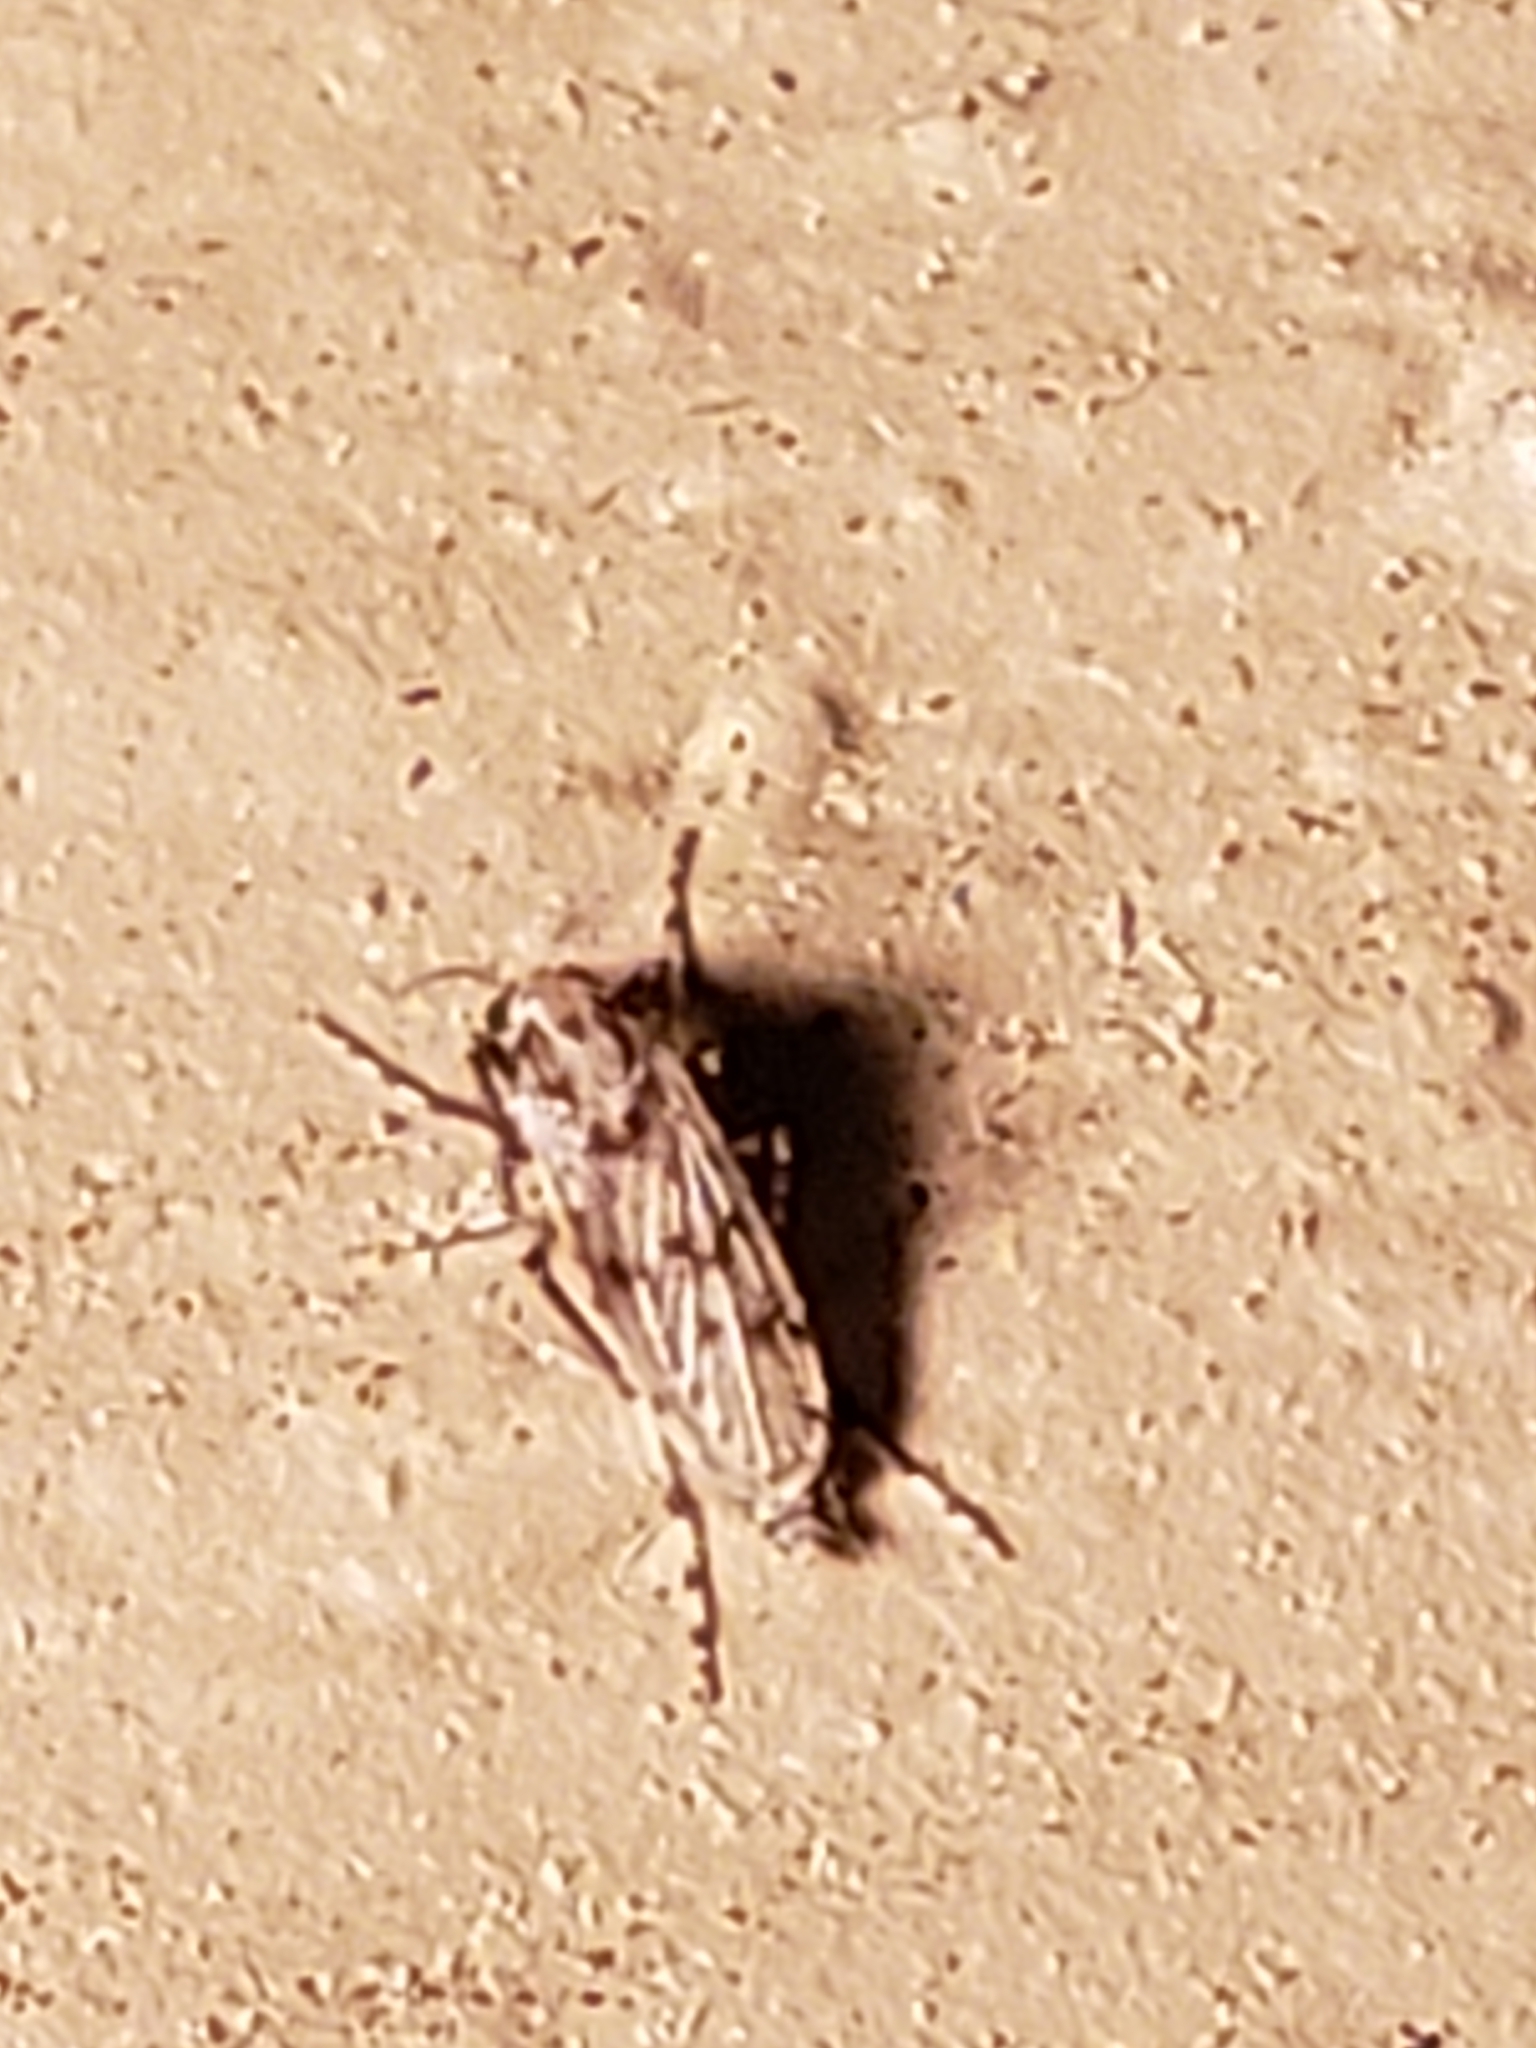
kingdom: Animalia
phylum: Arthropoda
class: Insecta
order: Diptera
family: Chaoboridae
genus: Chaoborus
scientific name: Chaoborus punctipennis
